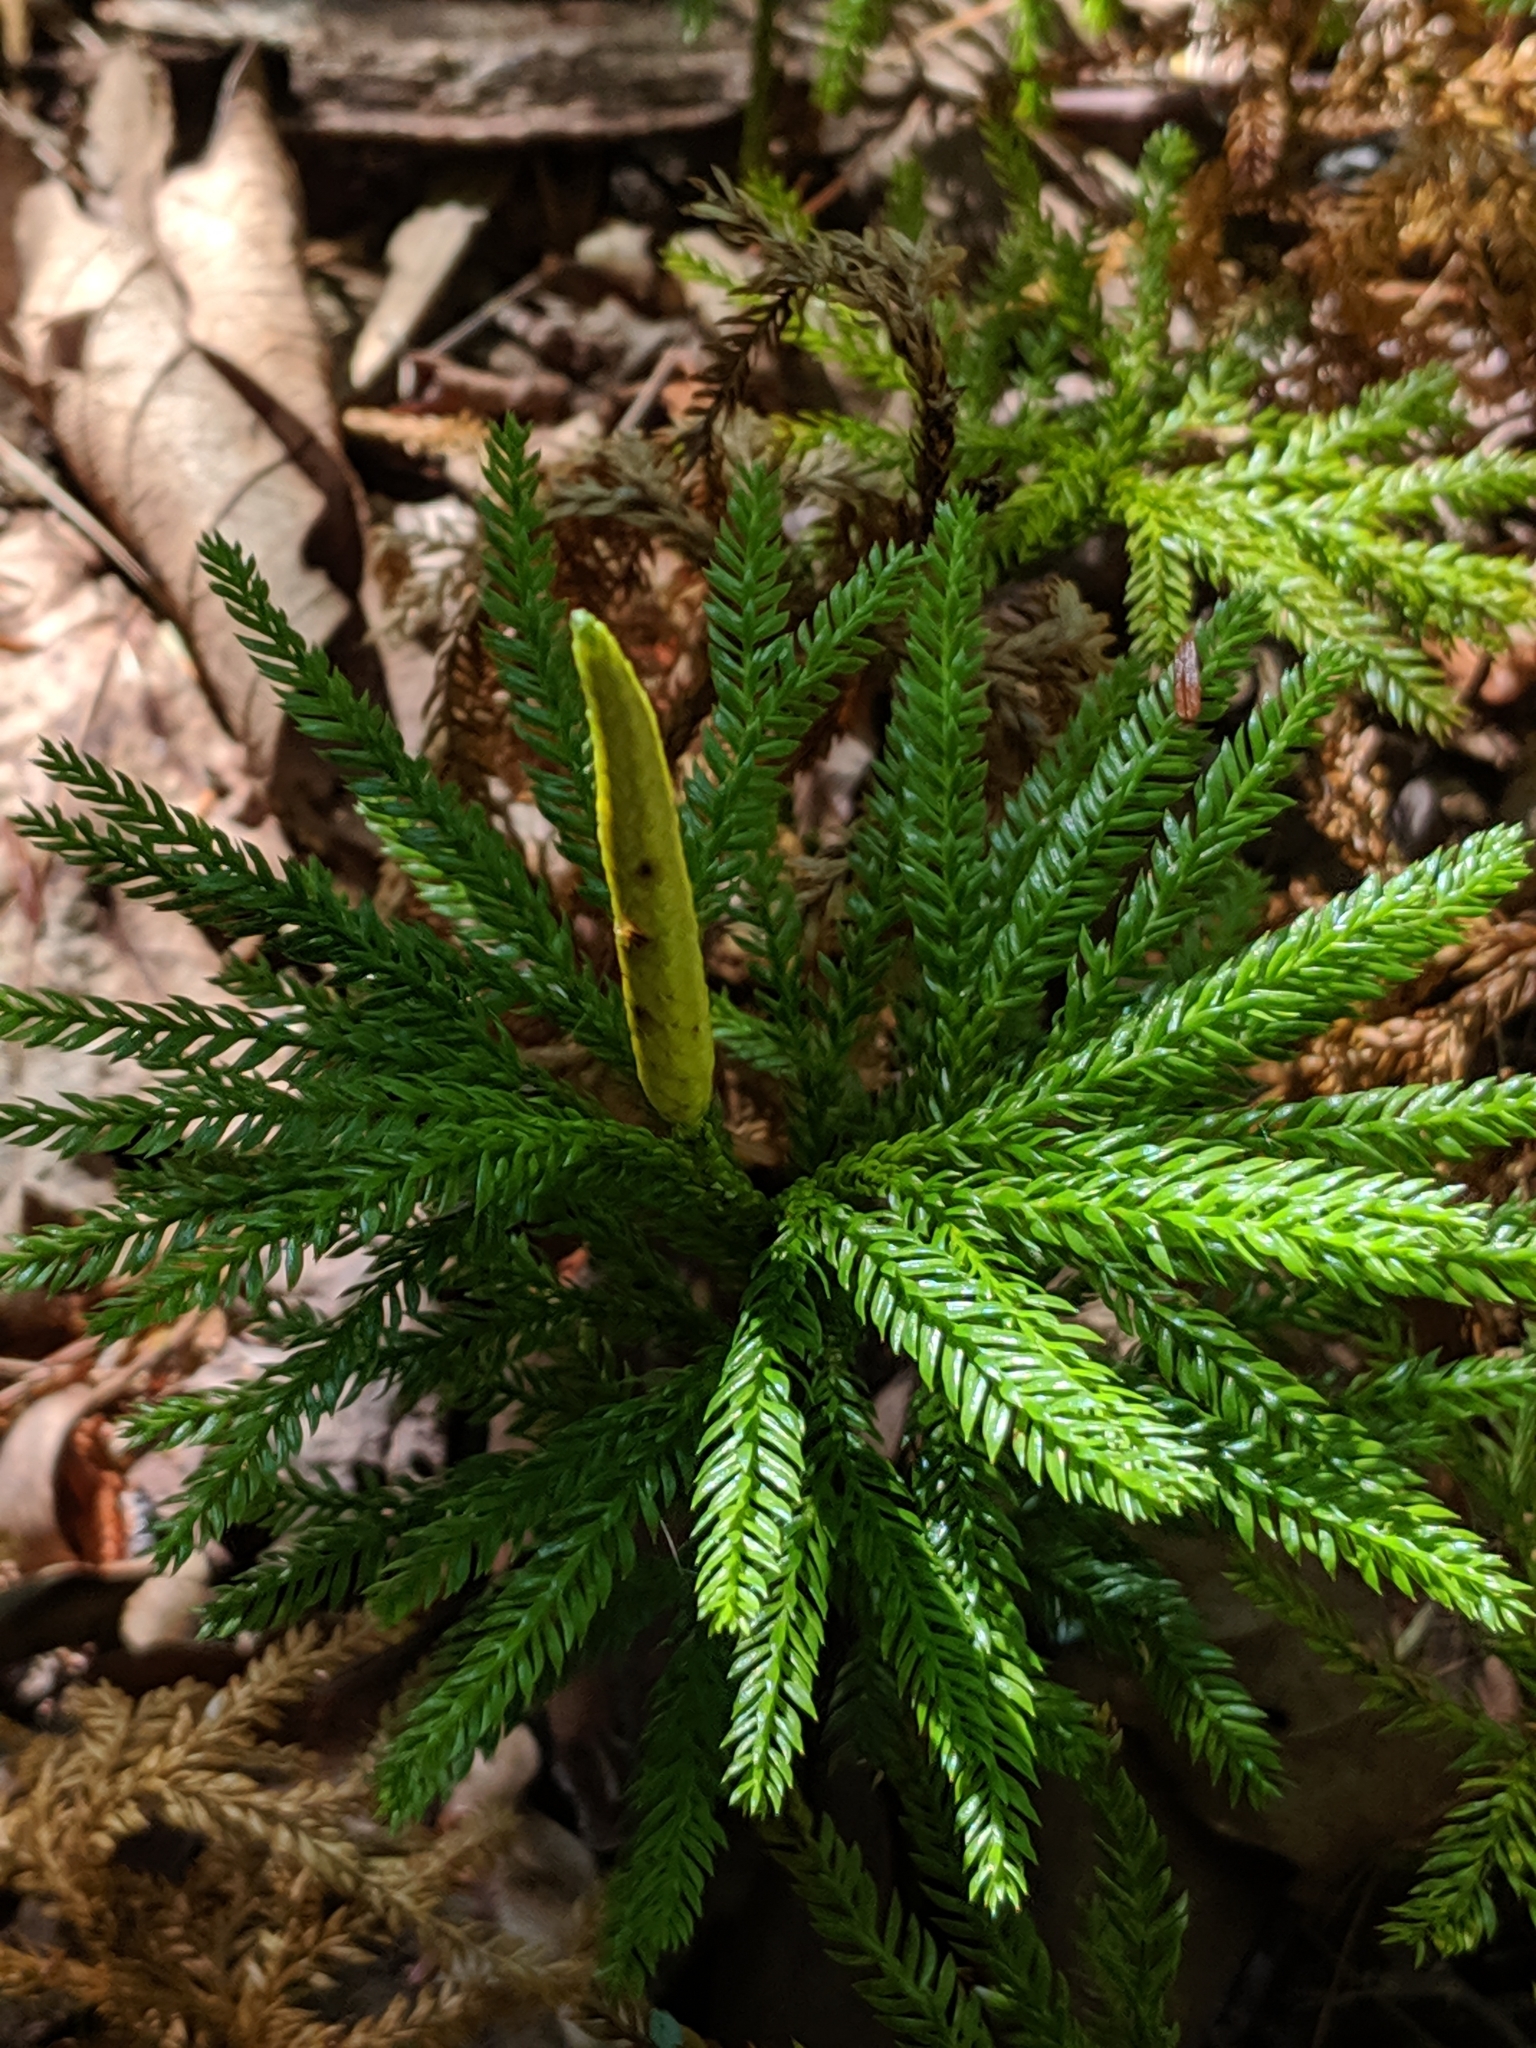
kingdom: Plantae
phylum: Tracheophyta
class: Lycopodiopsida
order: Lycopodiales
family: Lycopodiaceae
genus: Dendrolycopodium
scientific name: Dendrolycopodium obscurum
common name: Common ground-pine
